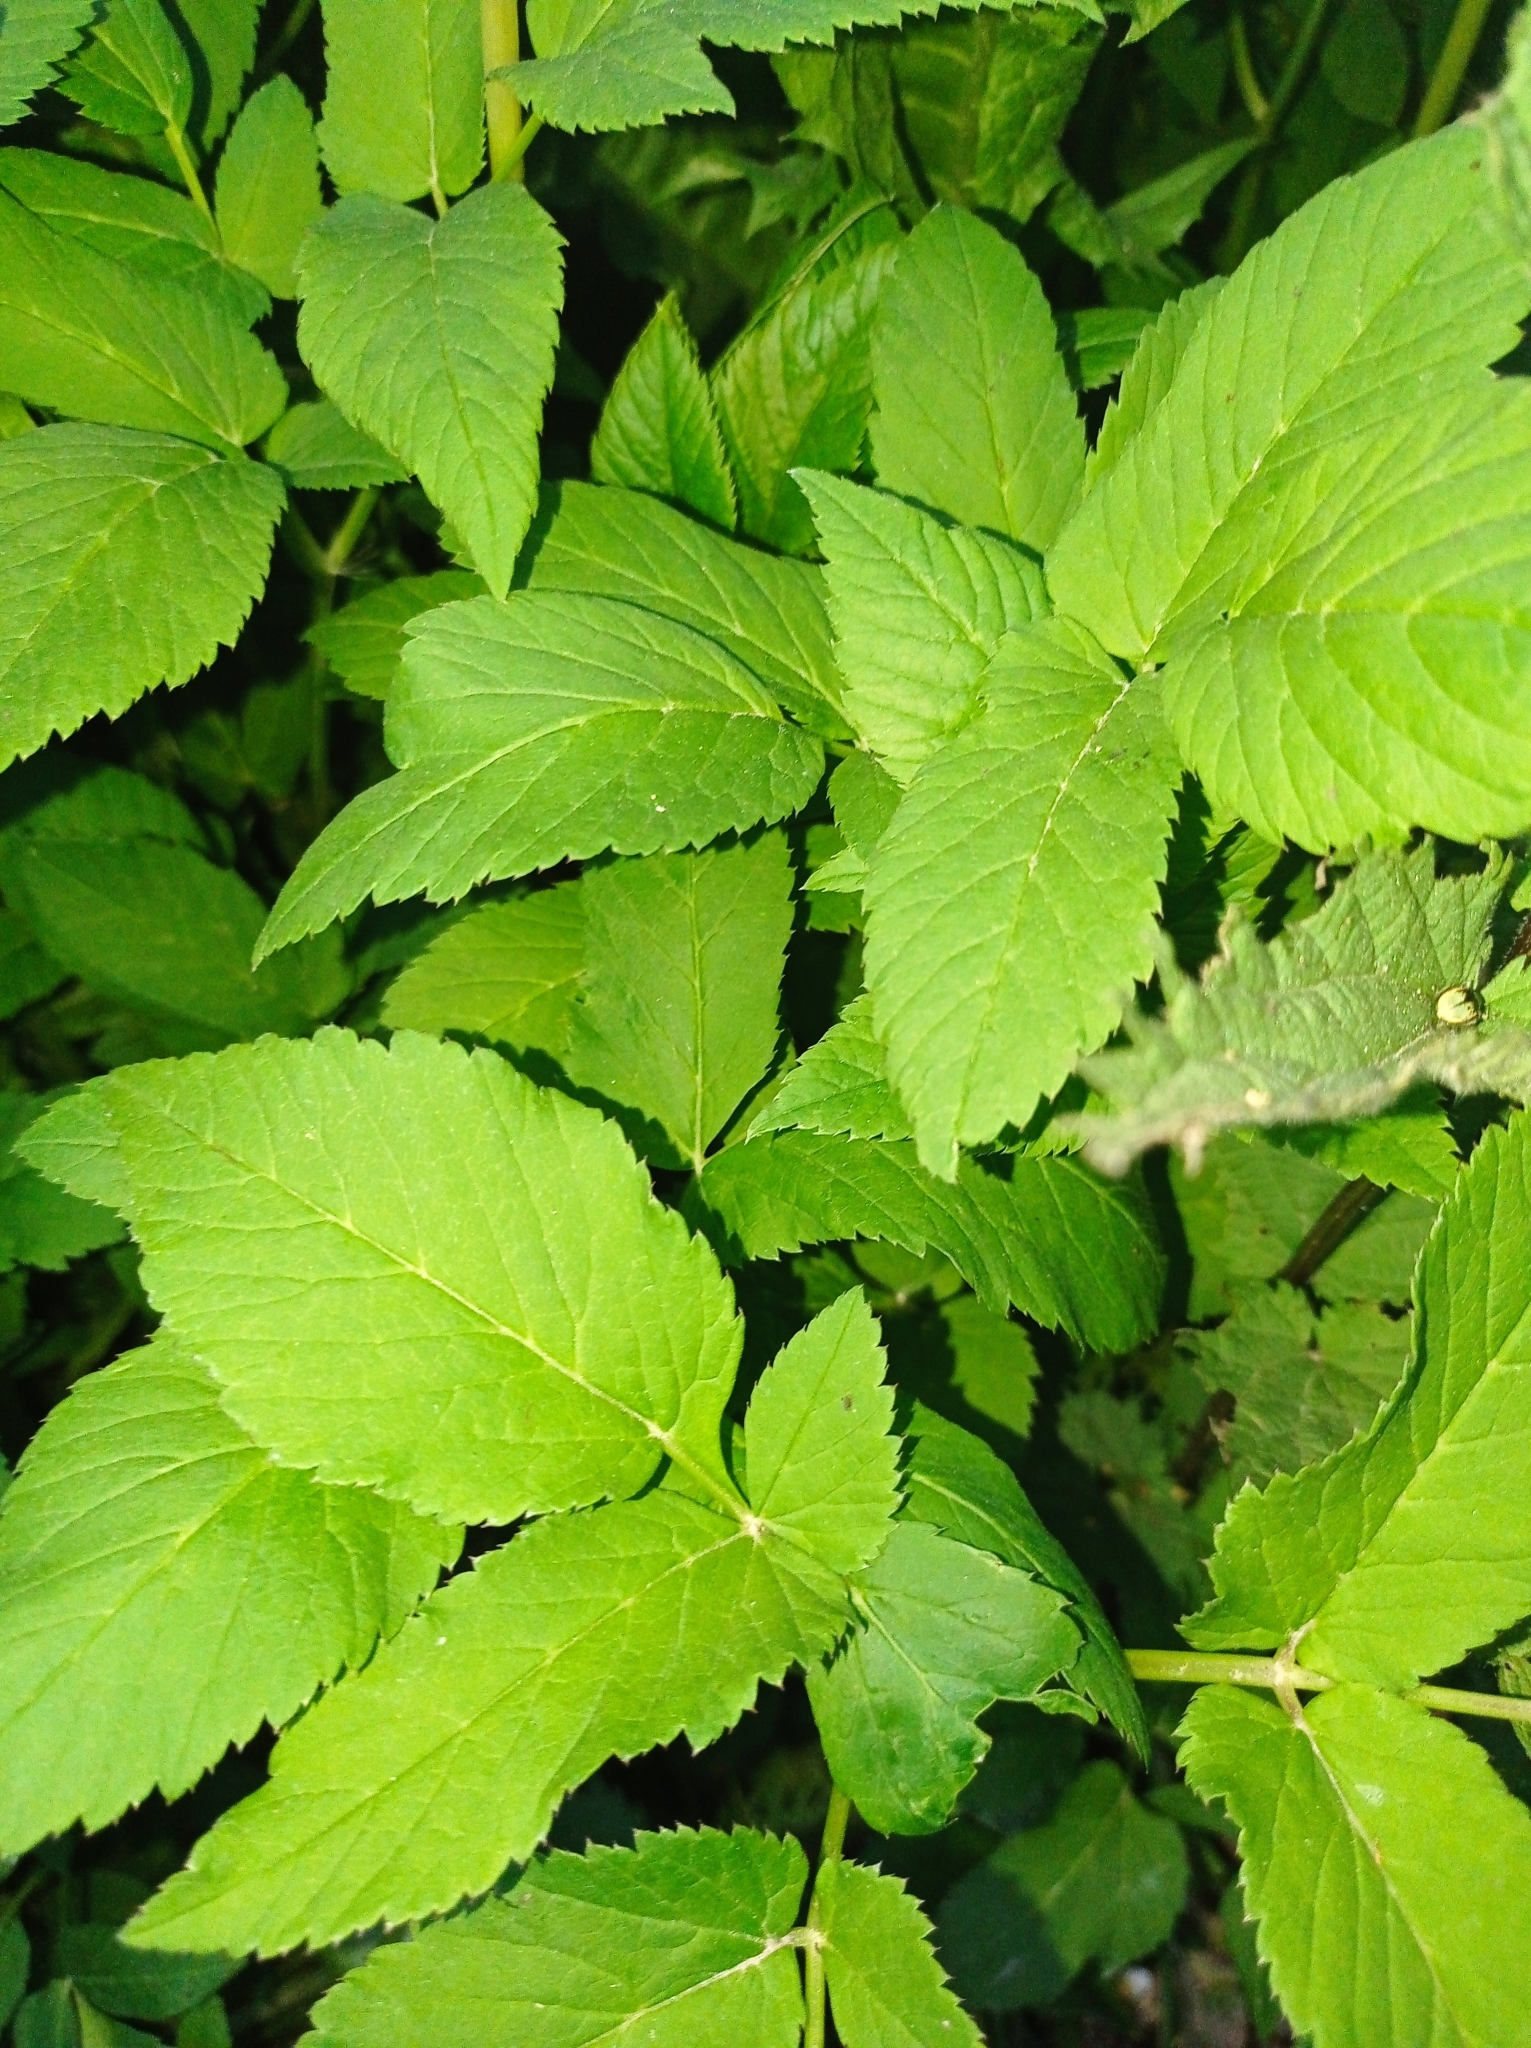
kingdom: Plantae
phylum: Tracheophyta
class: Magnoliopsida
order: Apiales
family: Apiaceae
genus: Aegopodium
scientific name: Aegopodium podagraria
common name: Ground-elder
